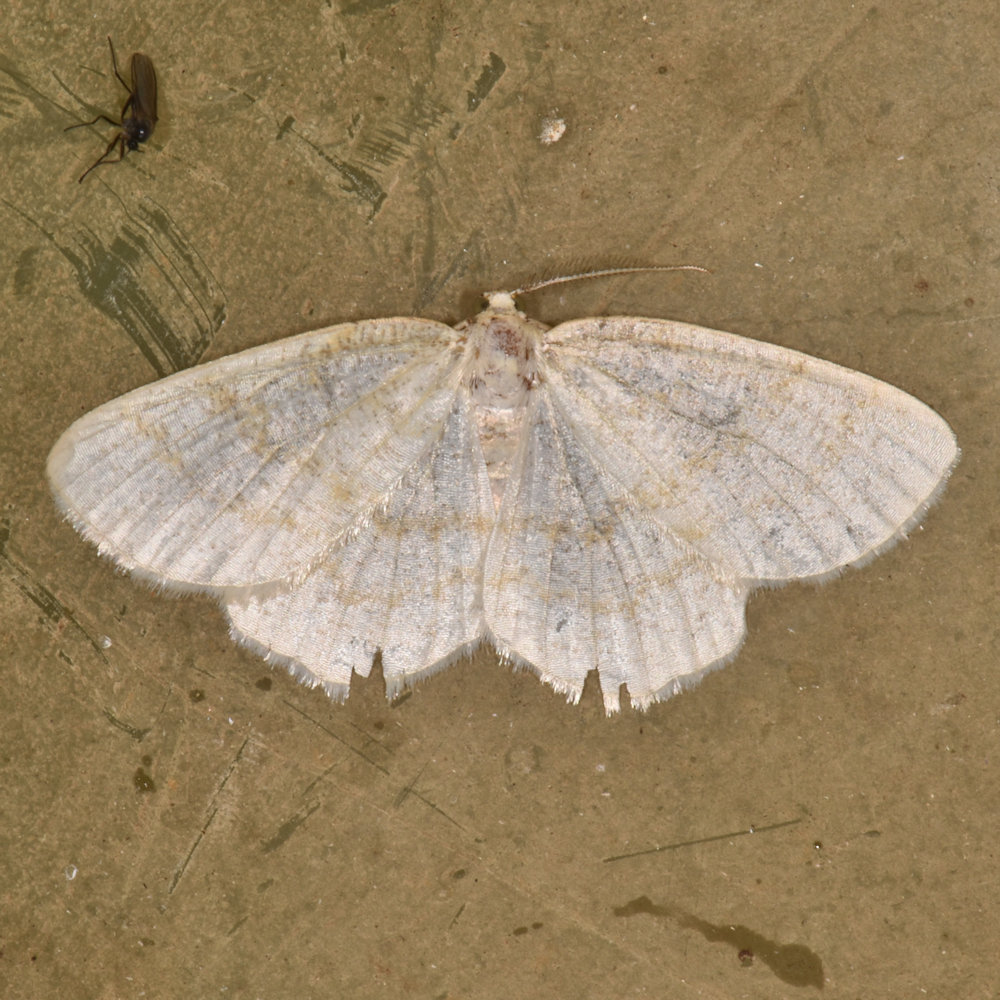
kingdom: Animalia
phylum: Arthropoda
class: Insecta
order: Lepidoptera
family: Geometridae
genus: Cabera
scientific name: Cabera erythemaria
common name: Yellow-dusted cream moth
